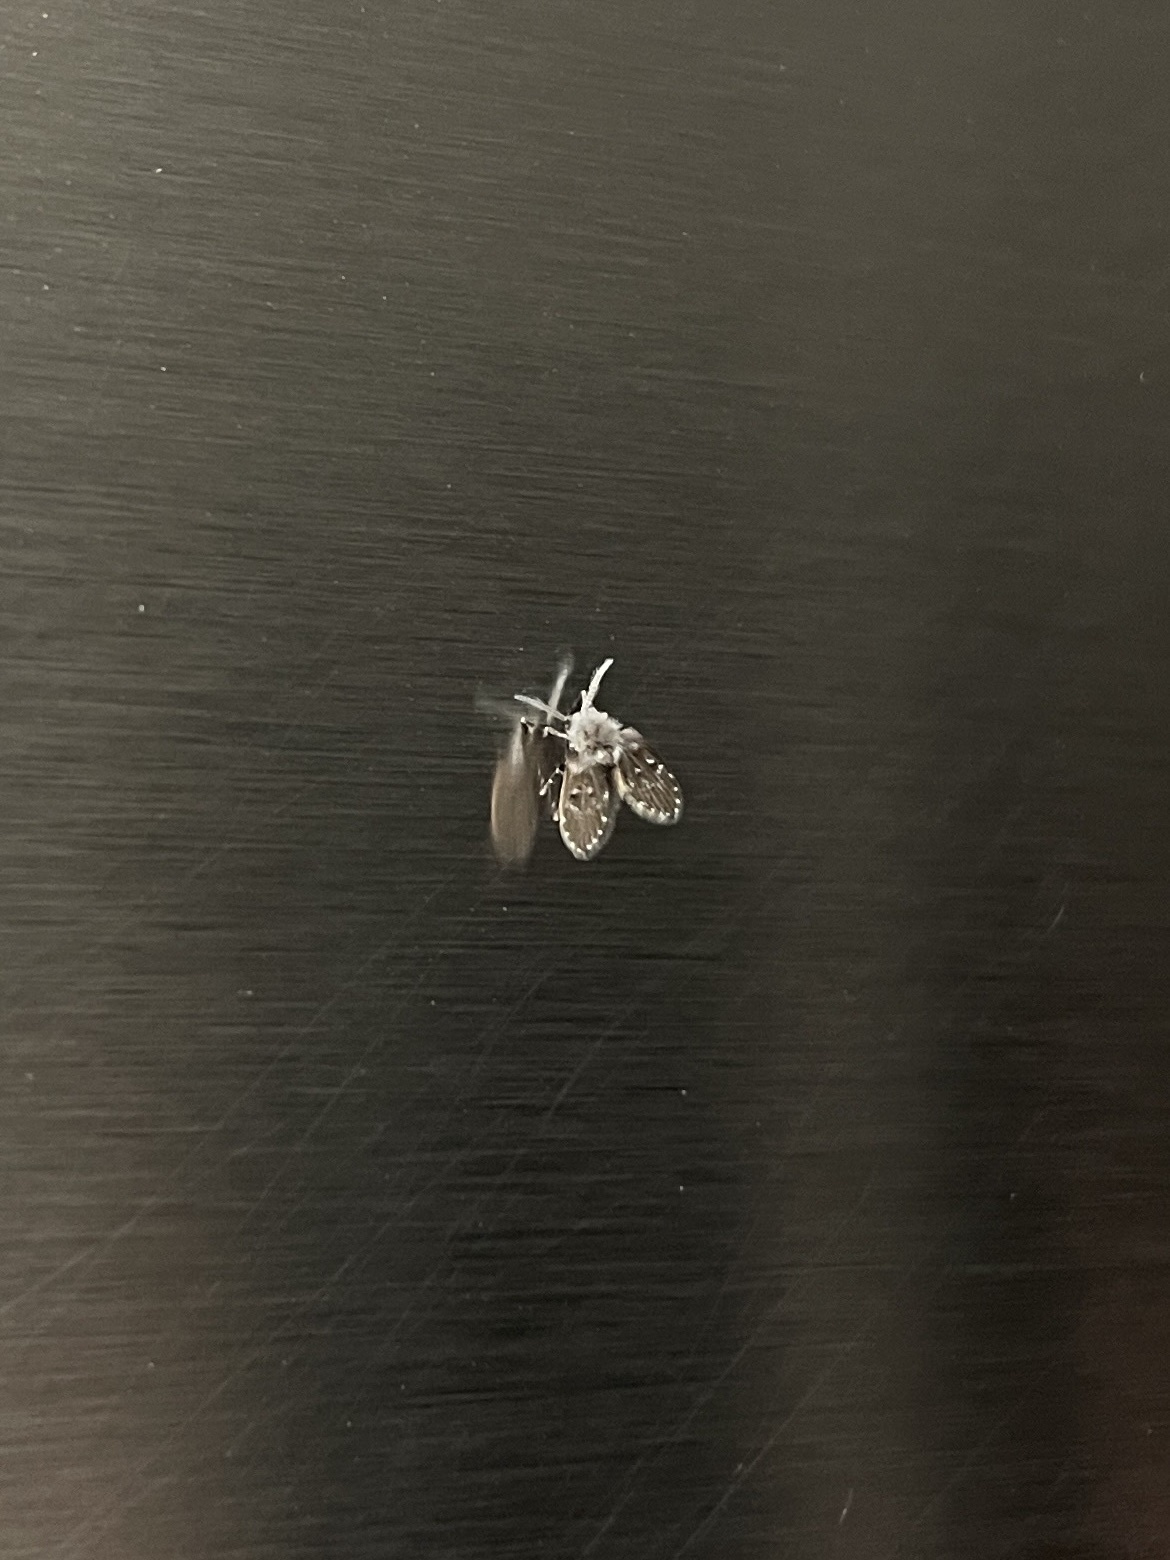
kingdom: Animalia
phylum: Arthropoda
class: Insecta
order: Diptera
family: Psychodidae
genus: Clogmia
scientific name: Clogmia albipunctatus
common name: White-spotted moth fly
